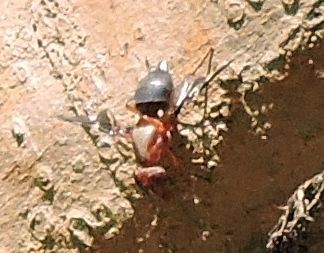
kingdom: Animalia
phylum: Arthropoda
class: Insecta
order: Diptera
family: Ulidiidae
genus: Delphinia
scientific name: Delphinia picta
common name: Common picture-winged fly
